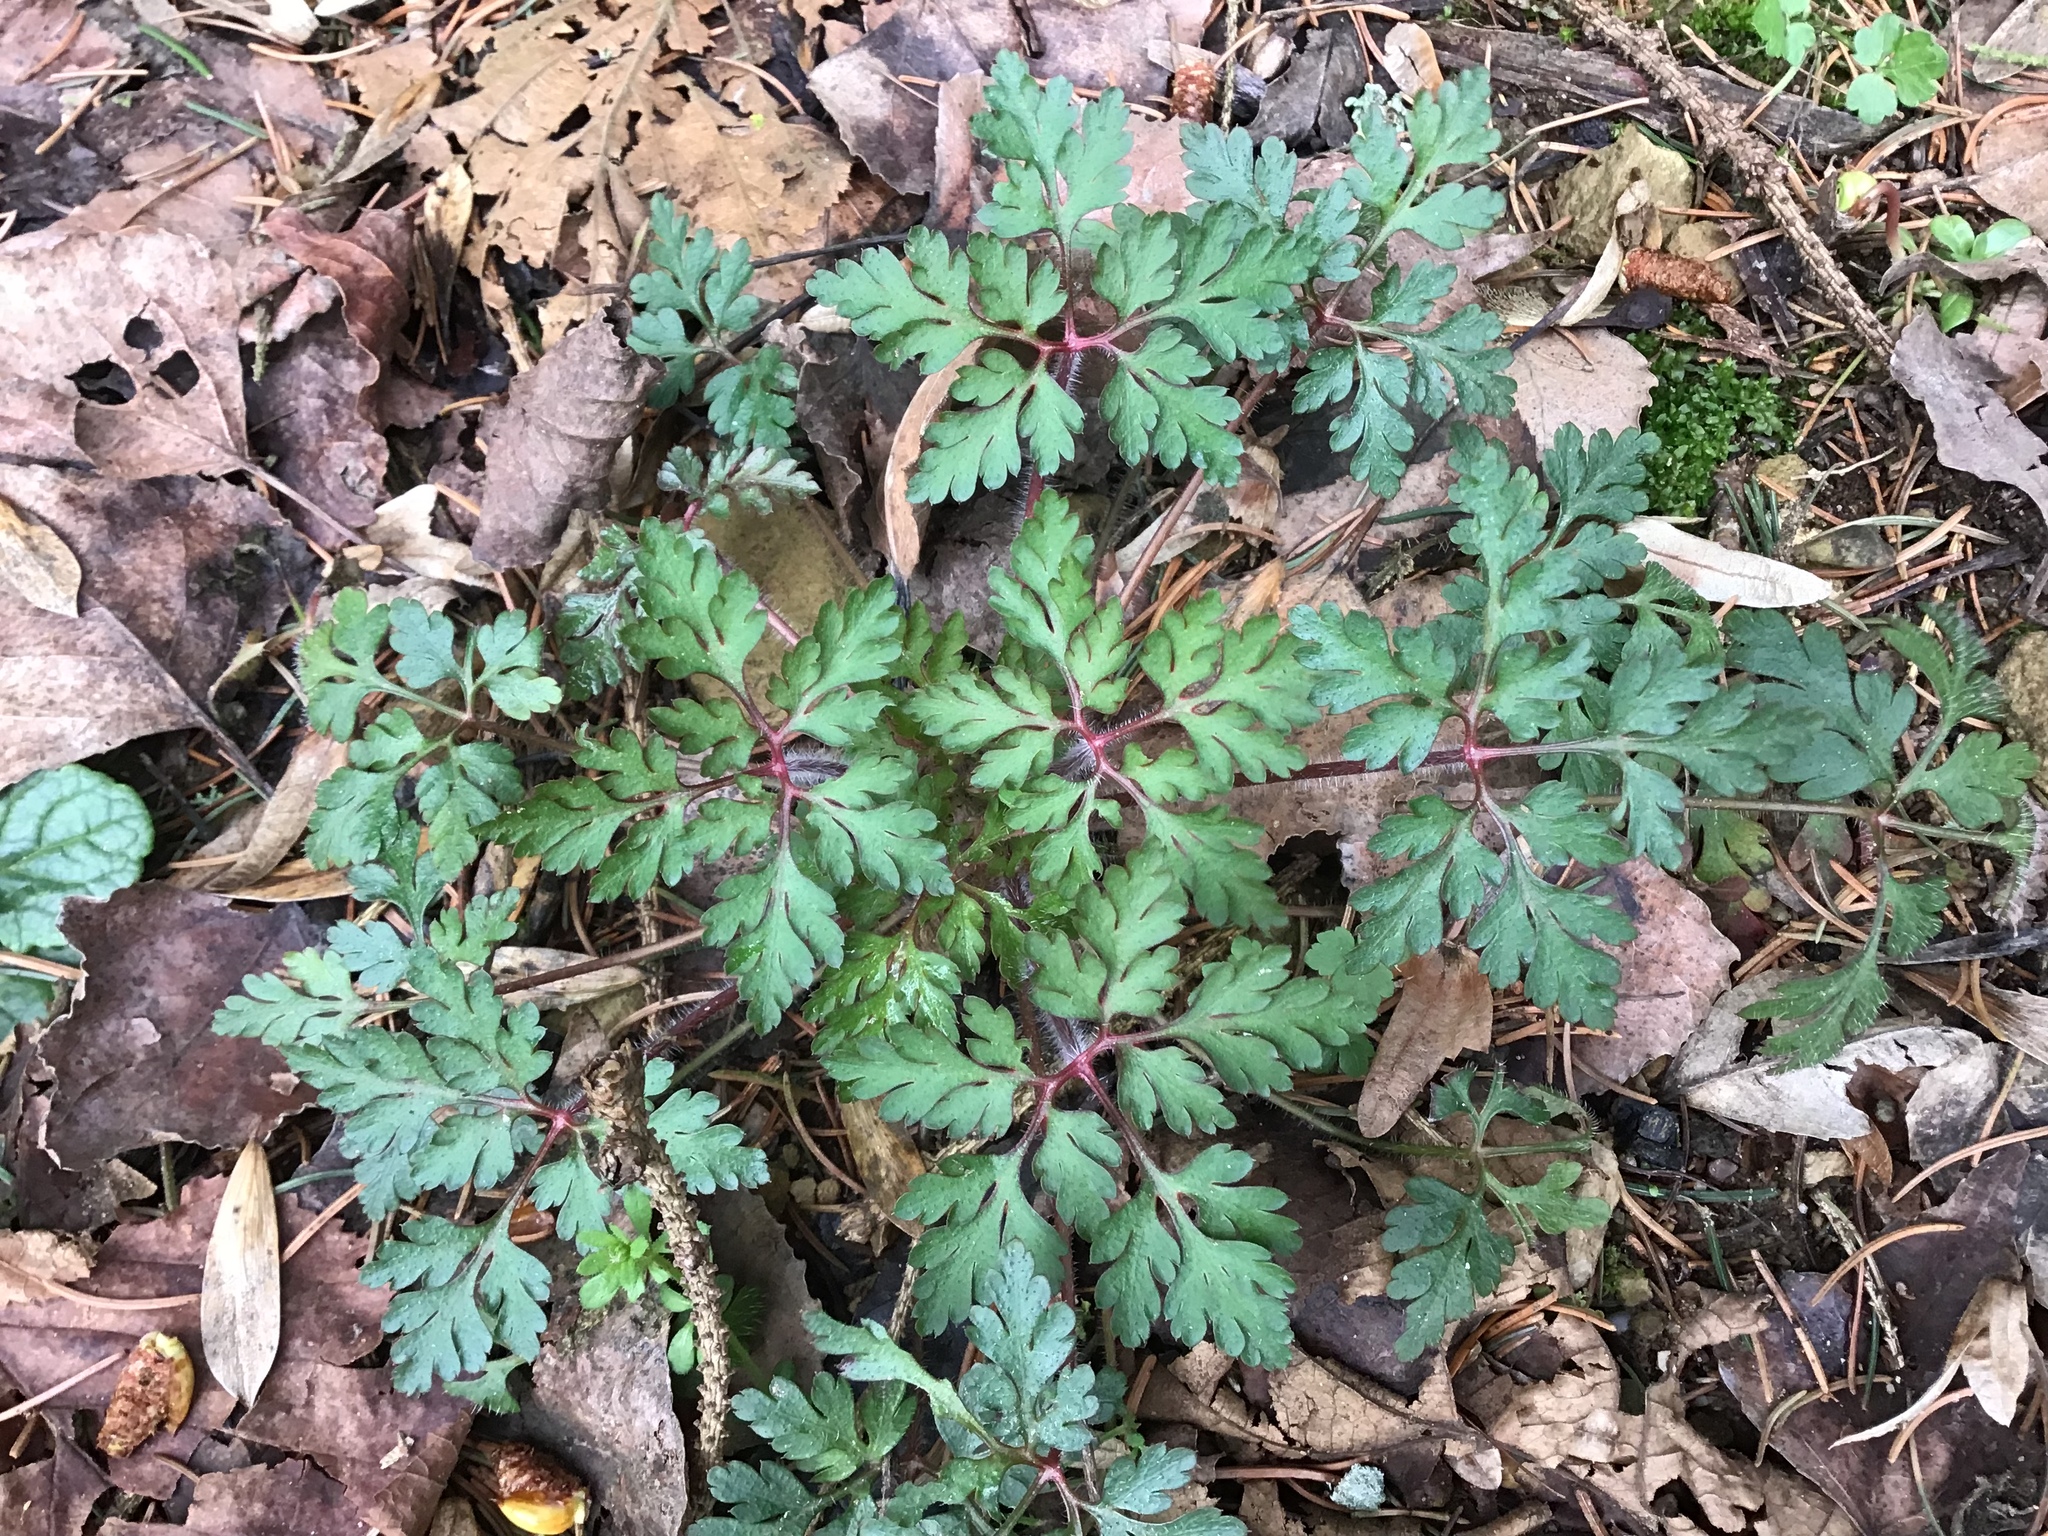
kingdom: Plantae
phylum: Tracheophyta
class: Magnoliopsida
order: Geraniales
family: Geraniaceae
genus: Geranium
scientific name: Geranium robertianum
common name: Herb-robert
